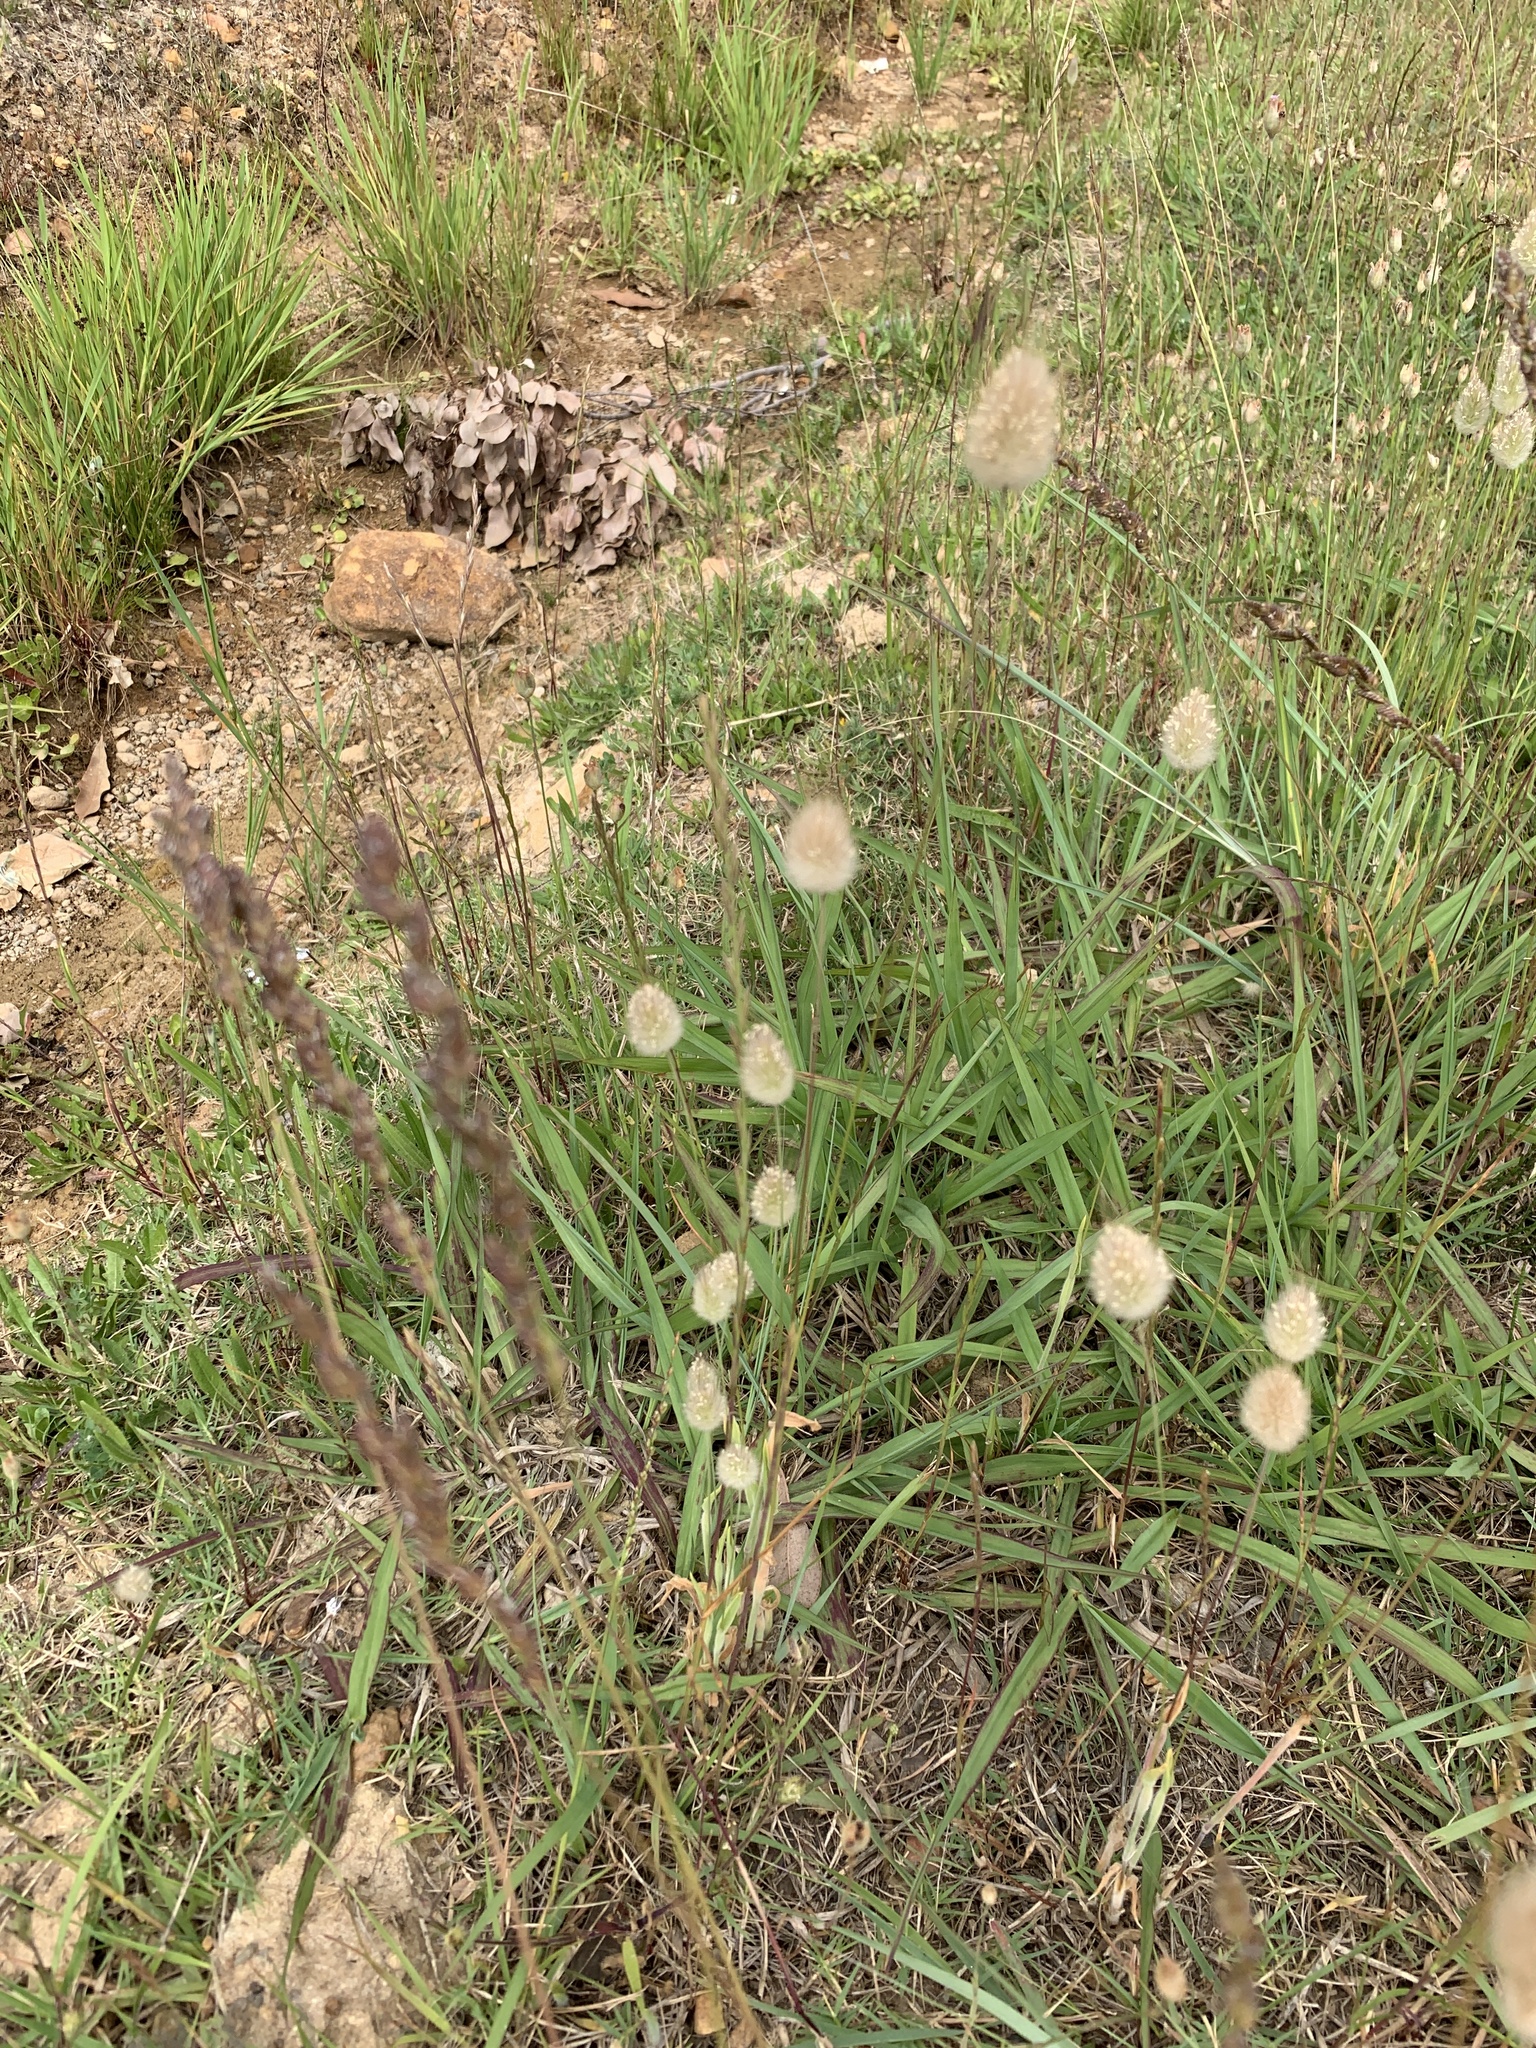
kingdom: Plantae
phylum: Tracheophyta
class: Liliopsida
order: Poales
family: Poaceae
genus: Lagurus
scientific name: Lagurus ovatus
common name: Hare's-tail
